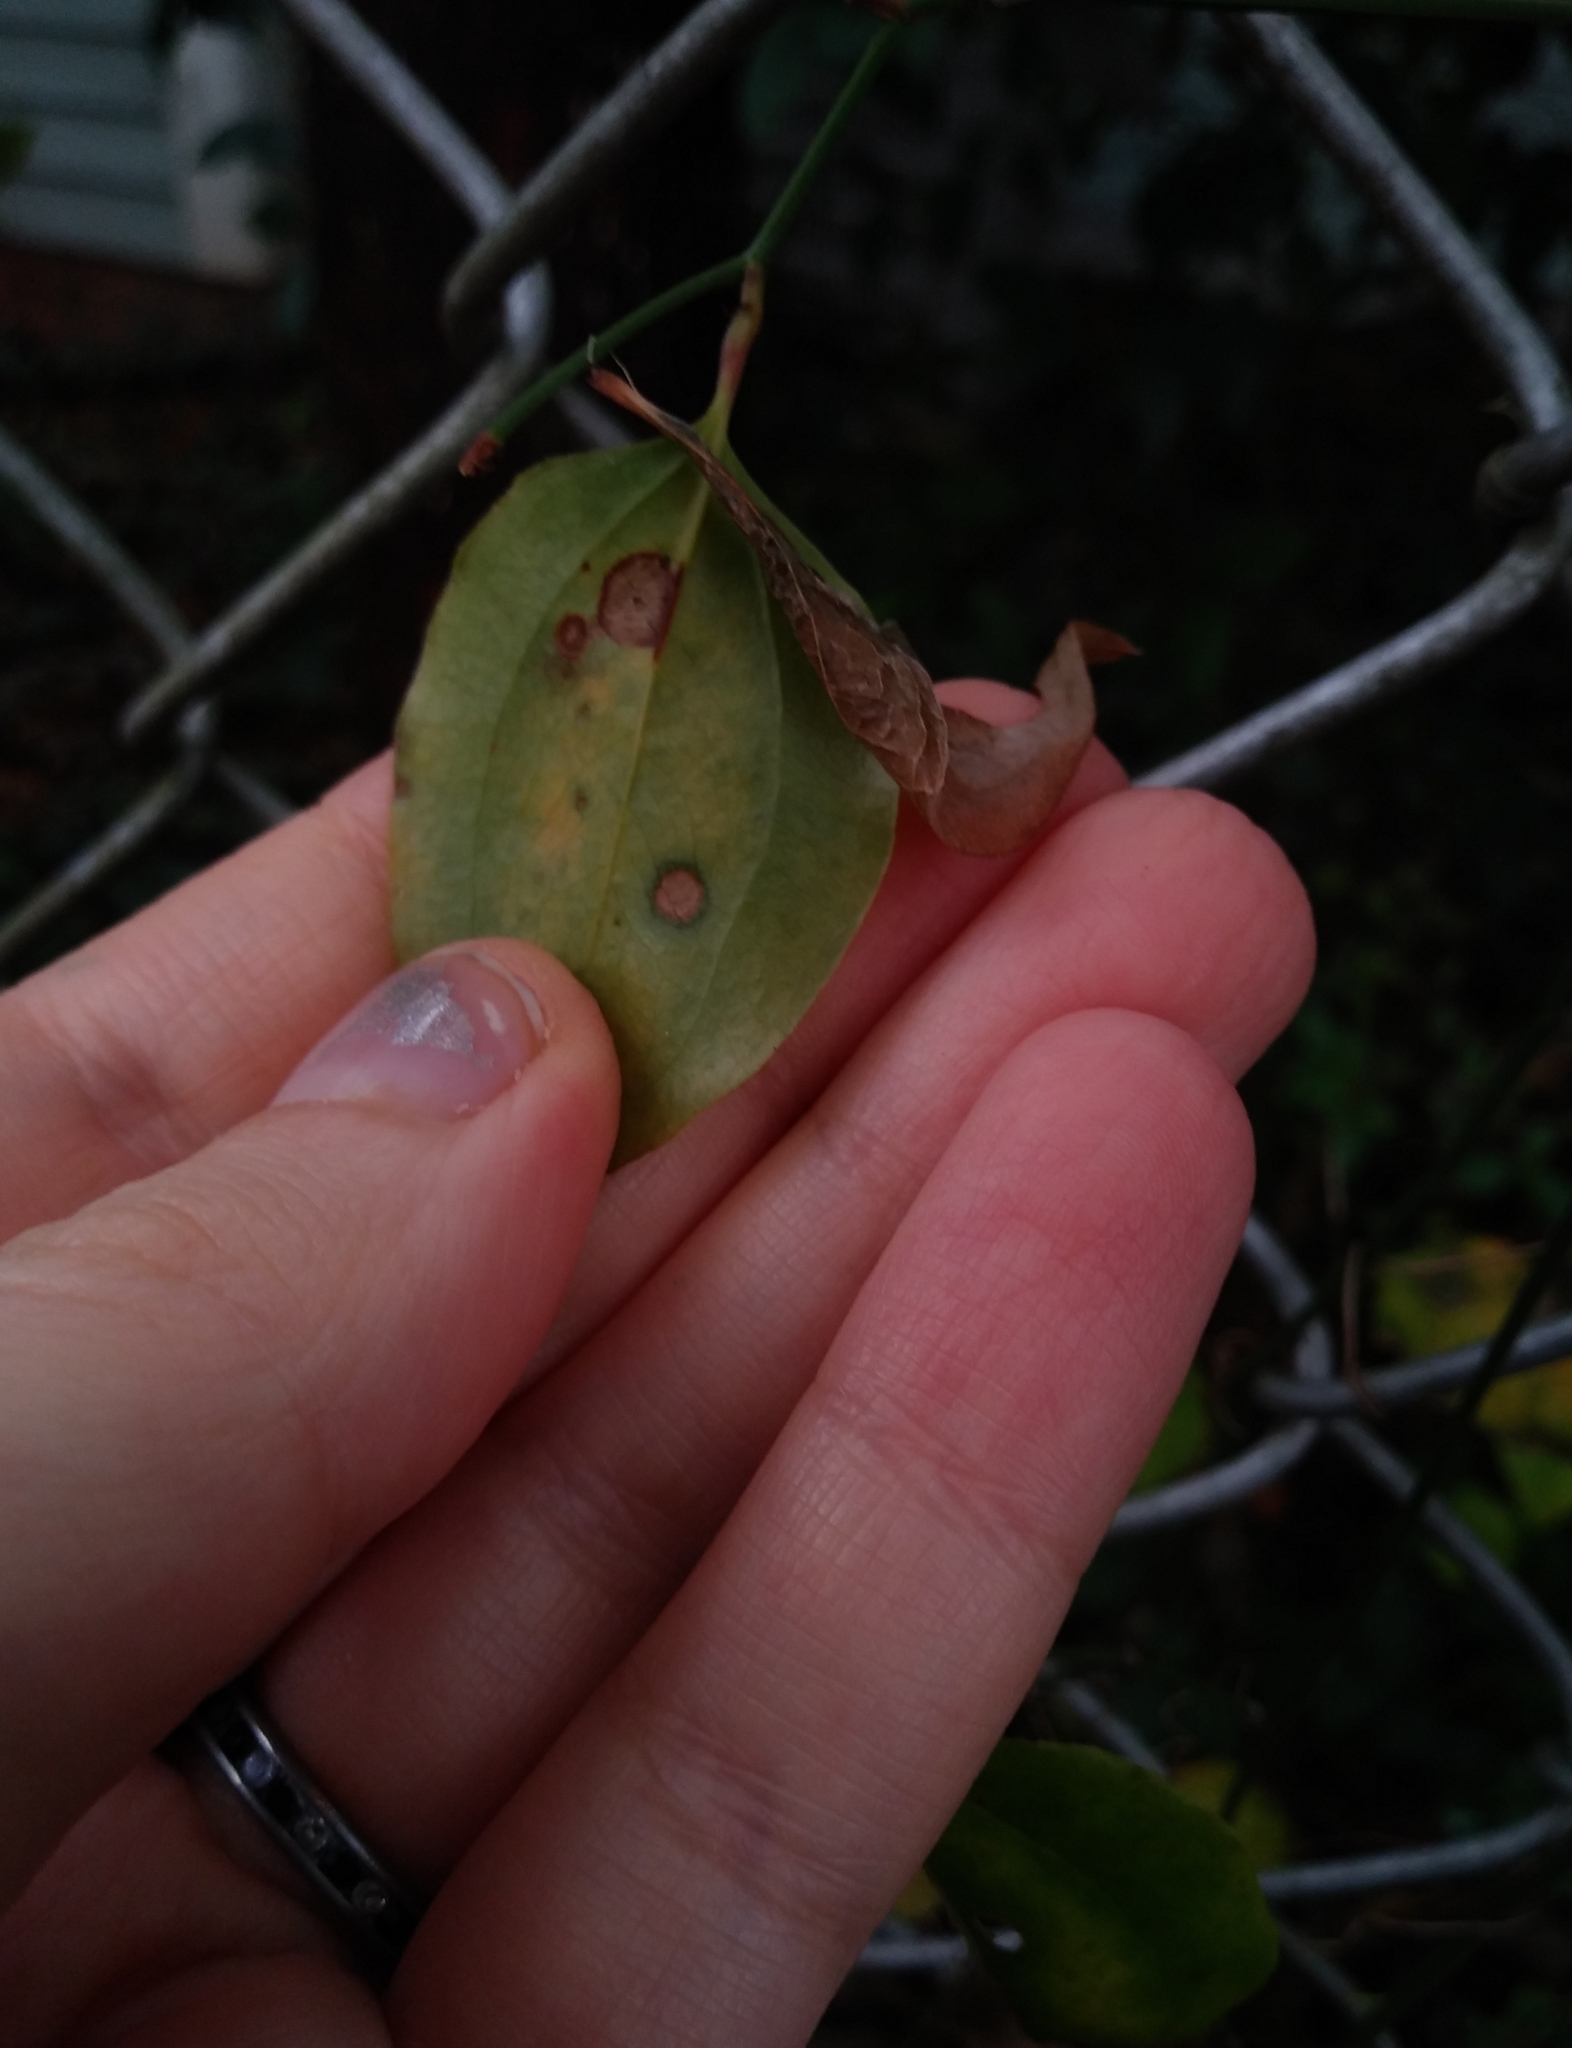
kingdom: Plantae
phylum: Tracheophyta
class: Liliopsida
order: Liliales
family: Smilacaceae
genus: Smilax
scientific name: Smilax rotundifolia
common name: Bullbriar
